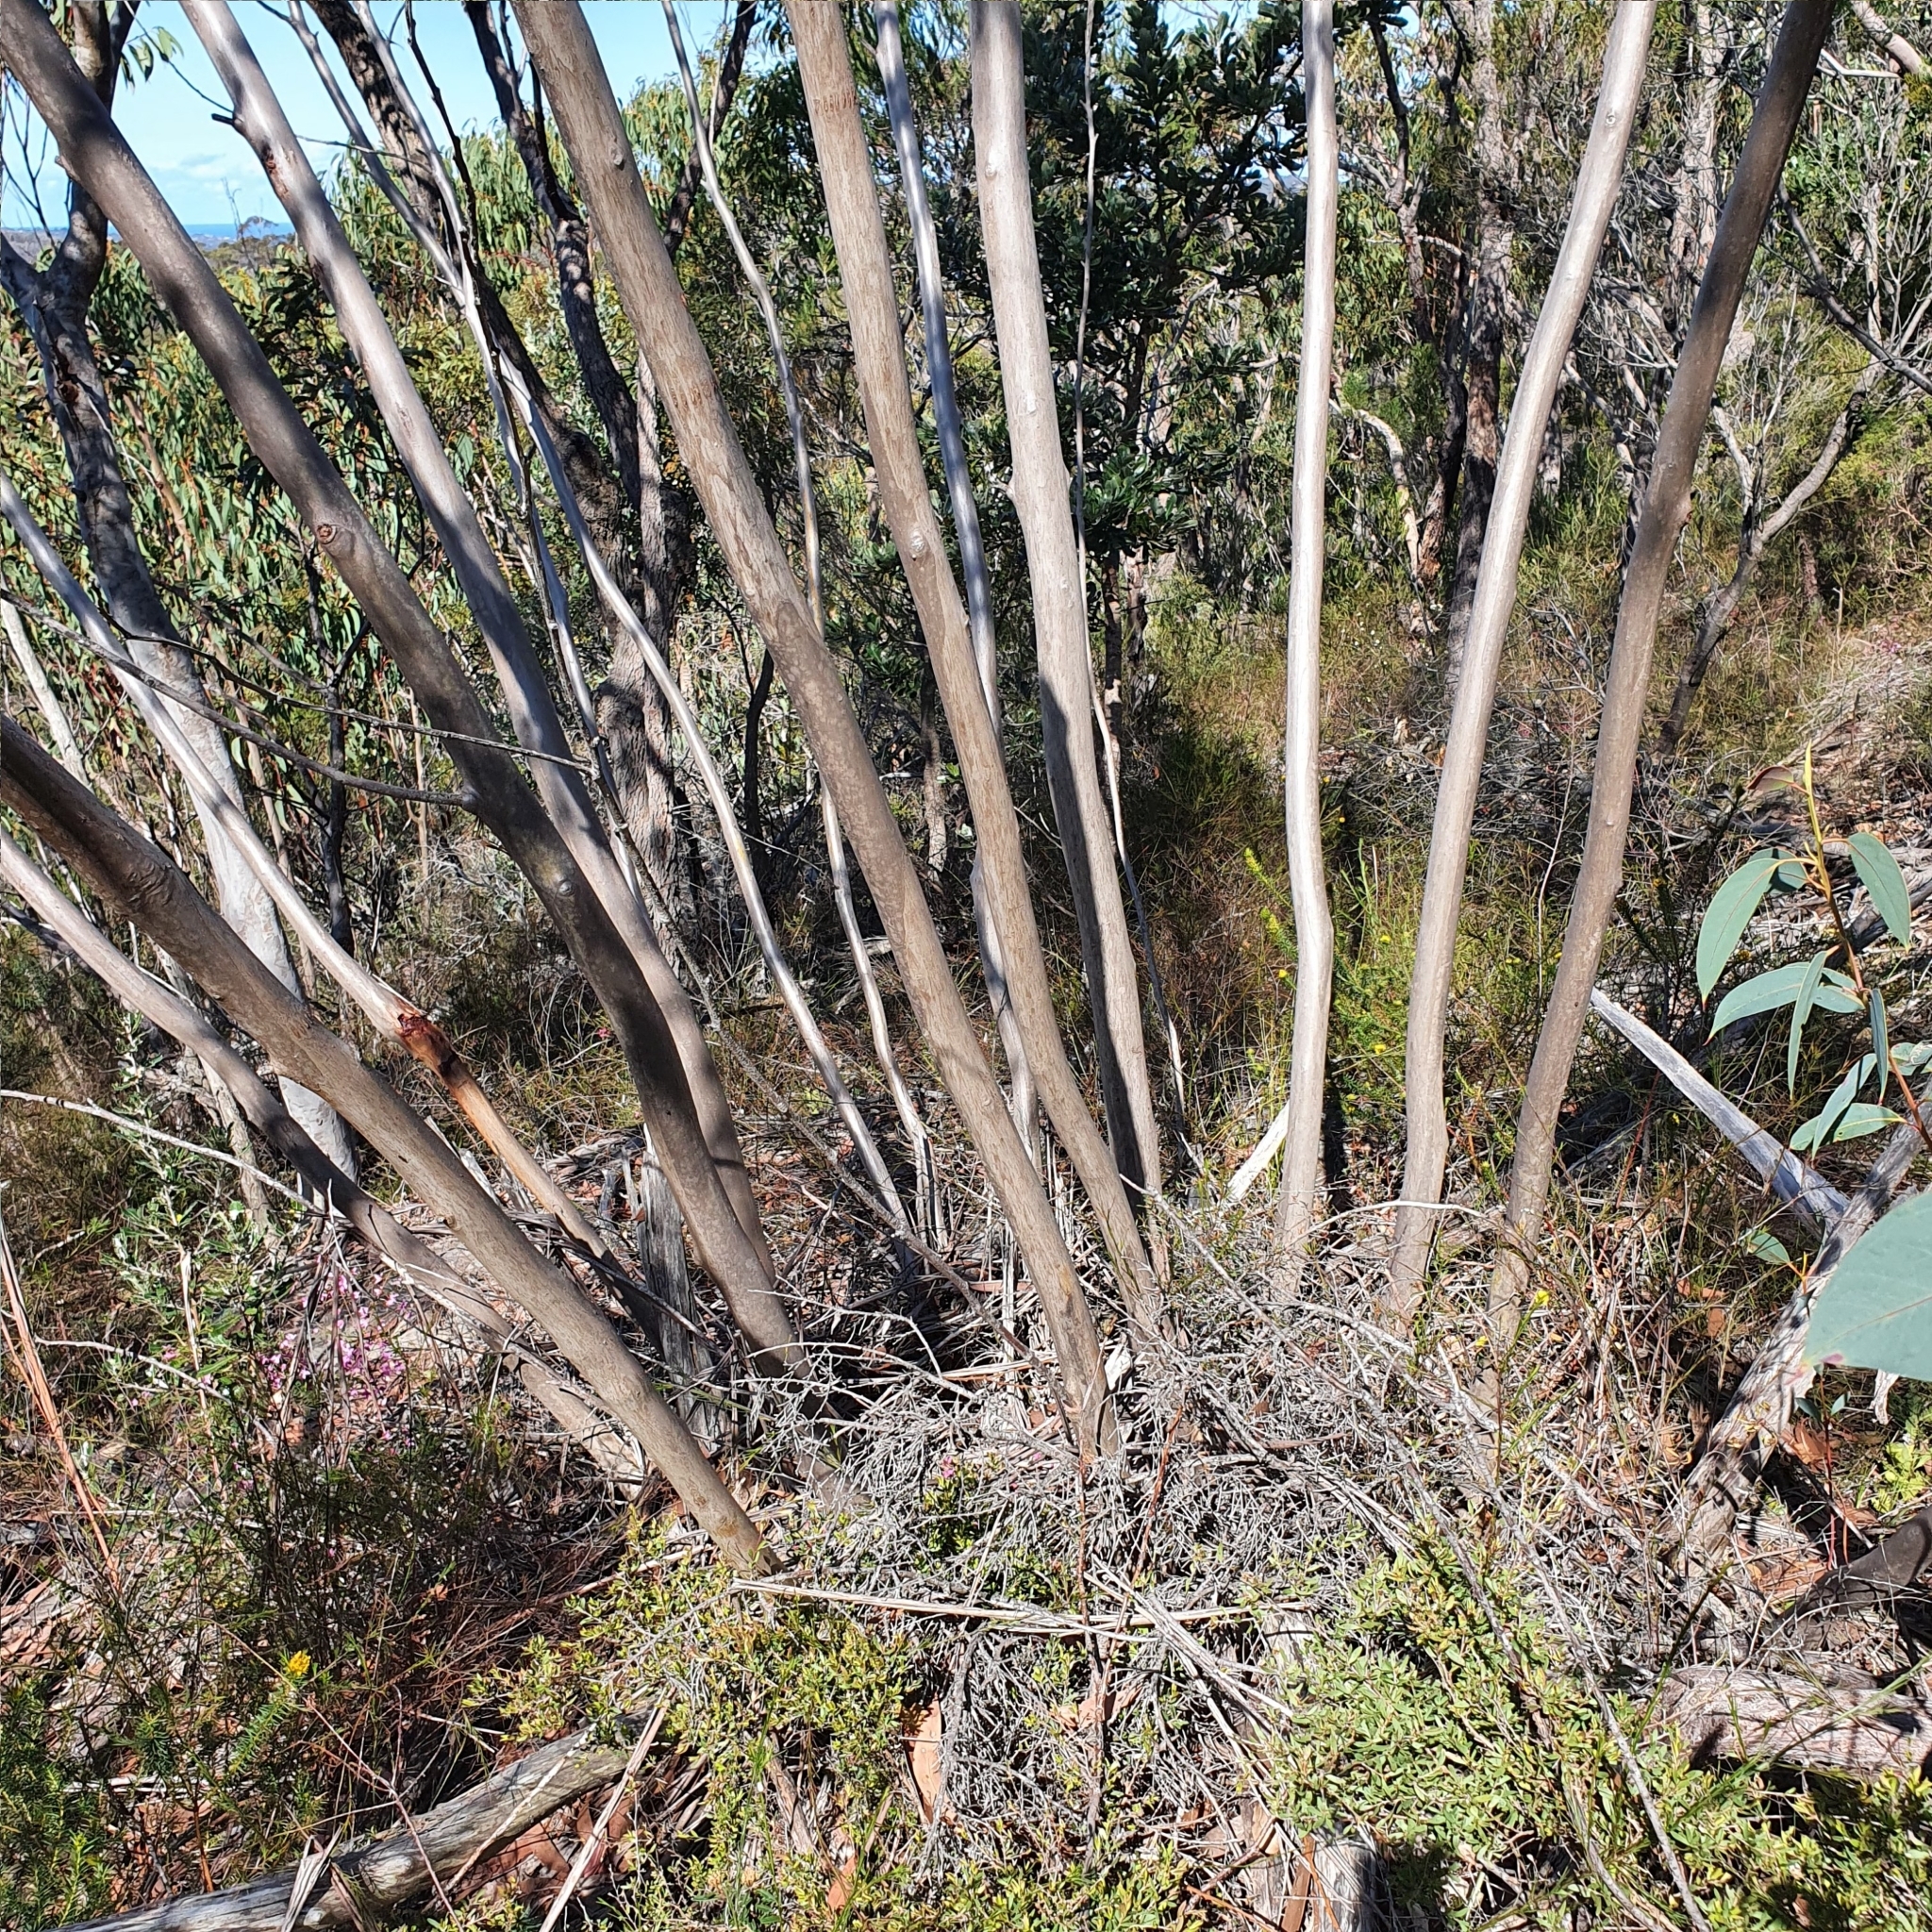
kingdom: Plantae
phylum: Tracheophyta
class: Magnoliopsida
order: Myrtales
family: Myrtaceae
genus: Eucalyptus
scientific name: Eucalyptus luehmanniana
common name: Yellow-top mallee ash
